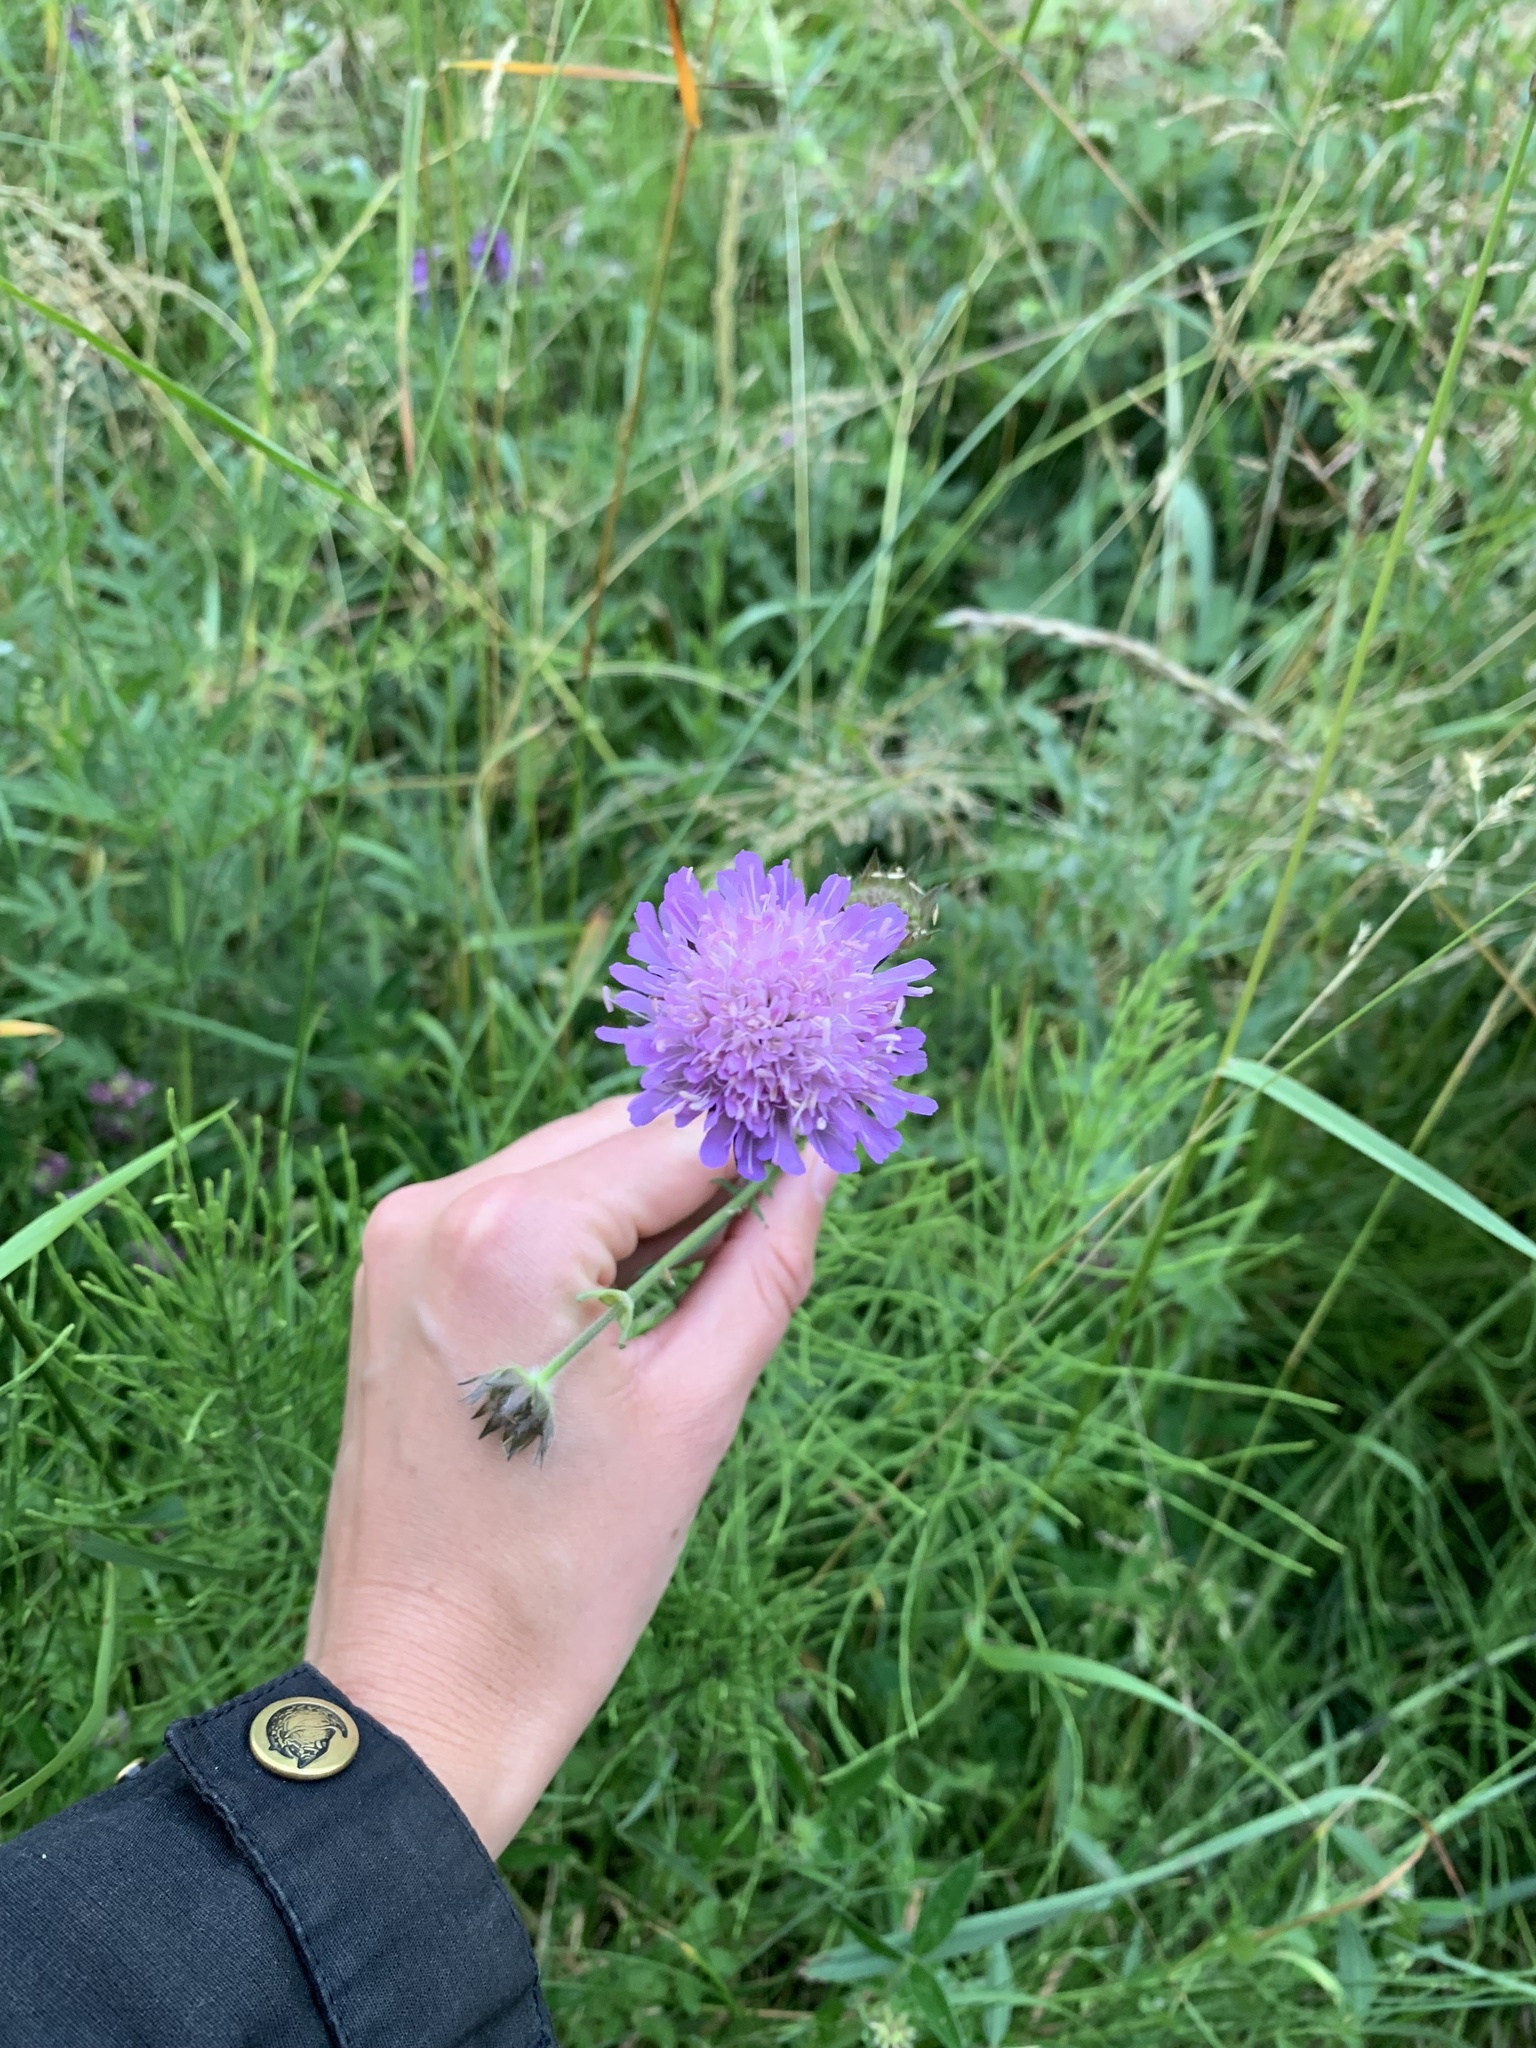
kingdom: Plantae
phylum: Tracheophyta
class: Magnoliopsida
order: Dipsacales
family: Caprifoliaceae
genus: Knautia
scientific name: Knautia arvensis
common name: Field scabiosa
